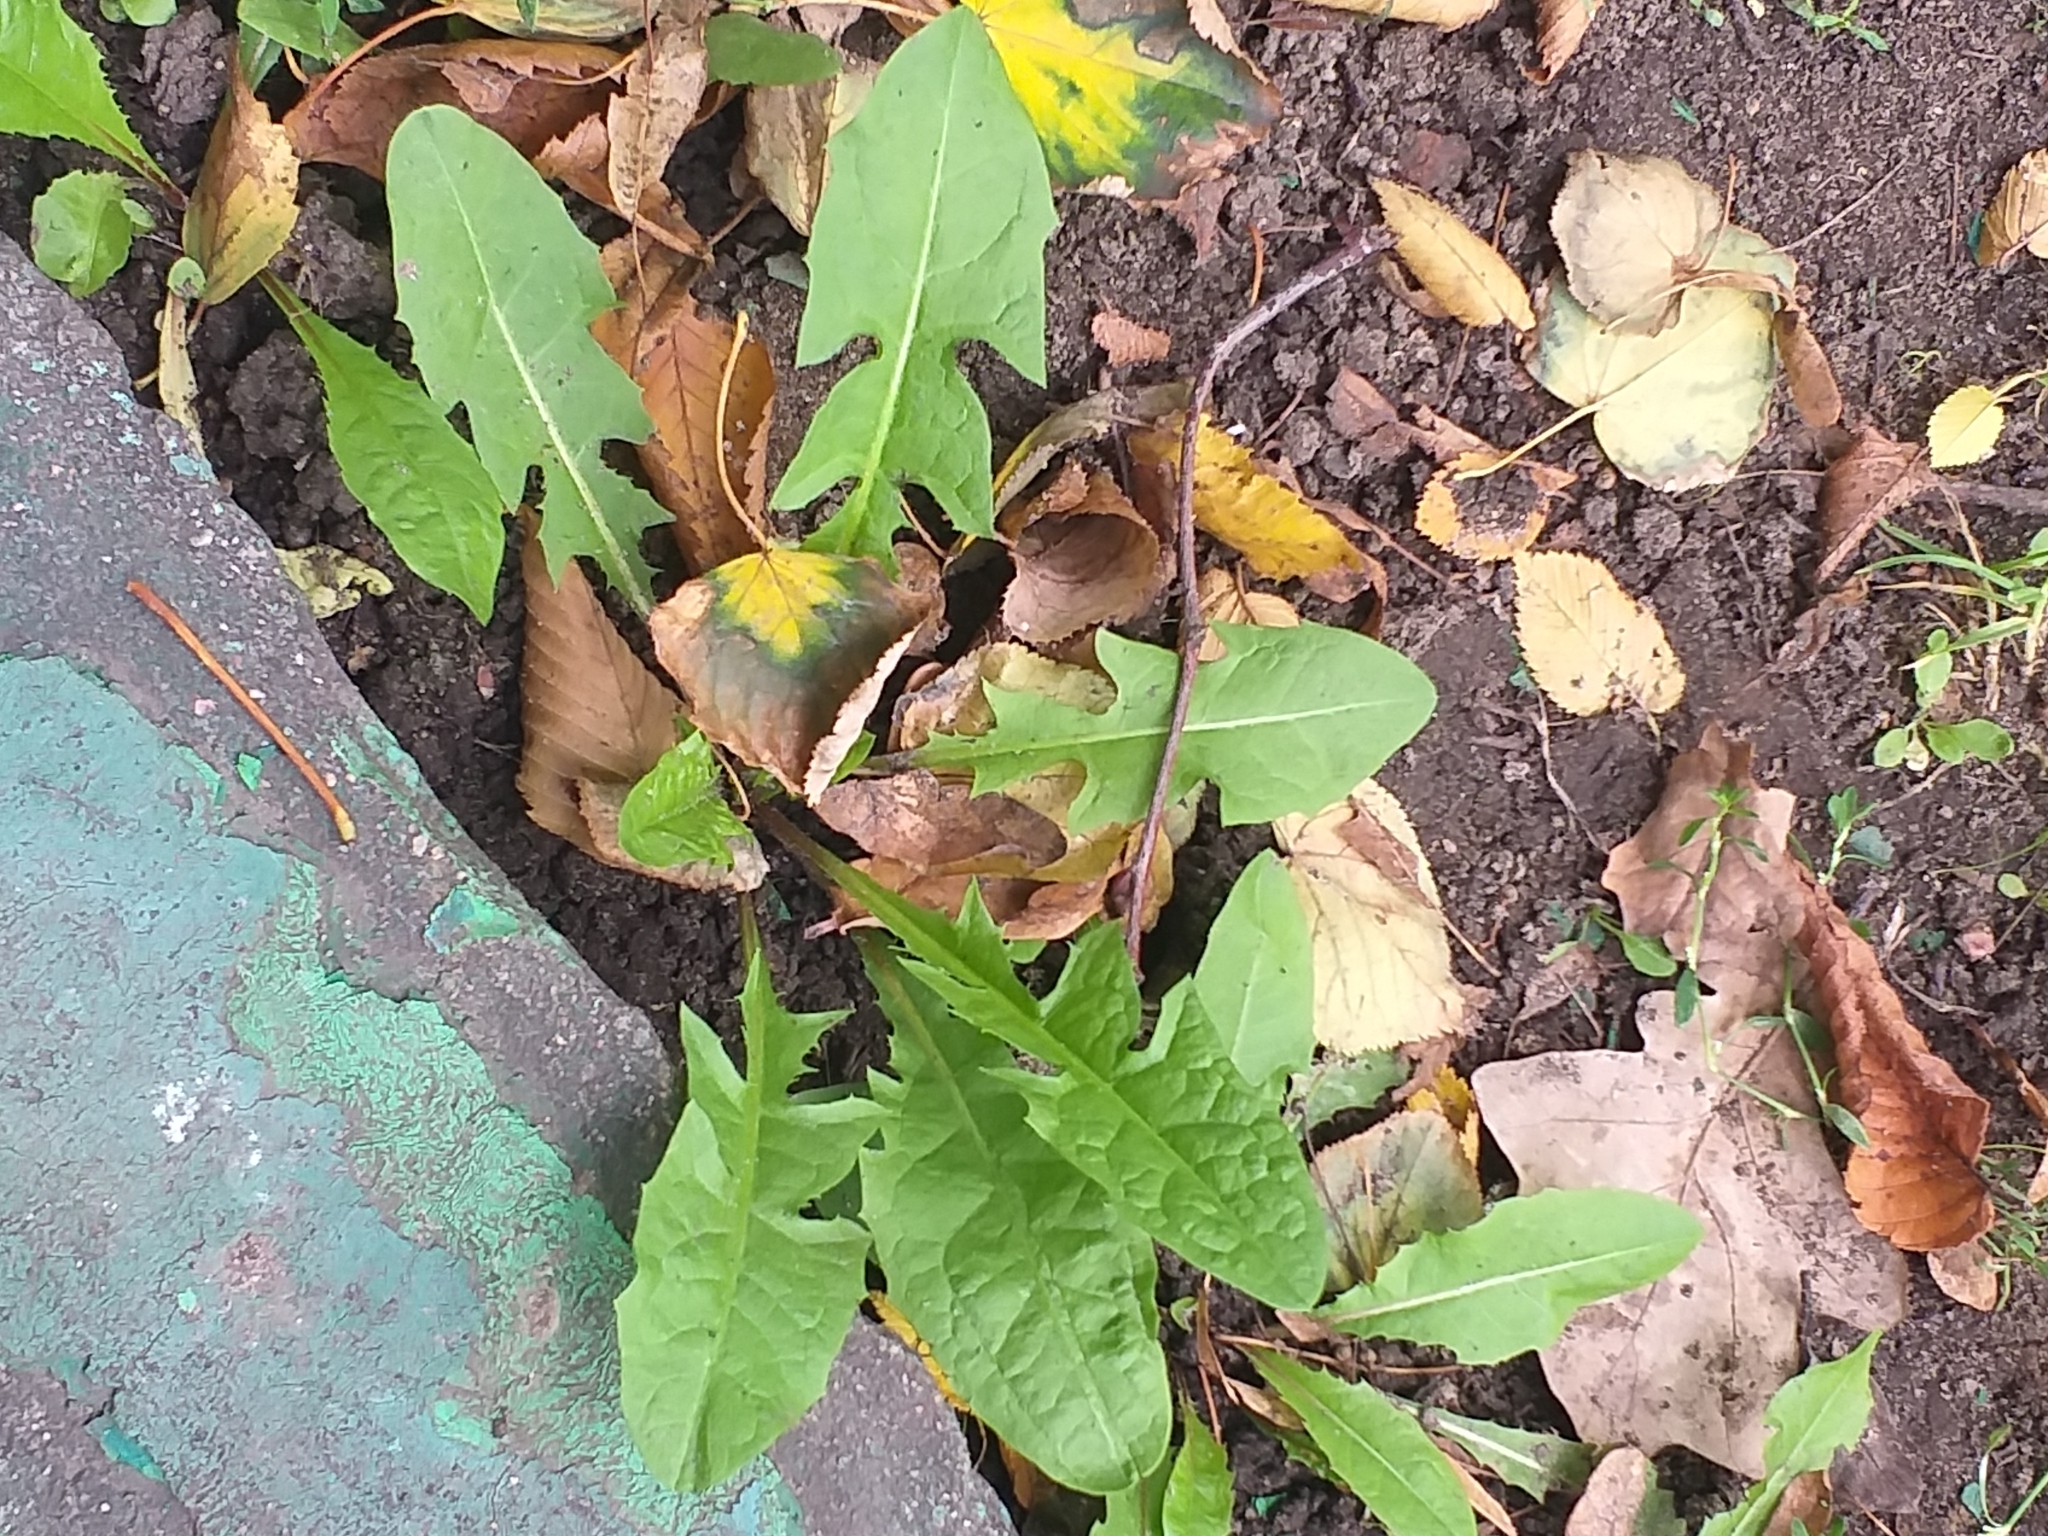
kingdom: Plantae
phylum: Tracheophyta
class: Magnoliopsida
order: Asterales
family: Asteraceae
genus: Taraxacum
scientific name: Taraxacum officinale
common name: Common dandelion
